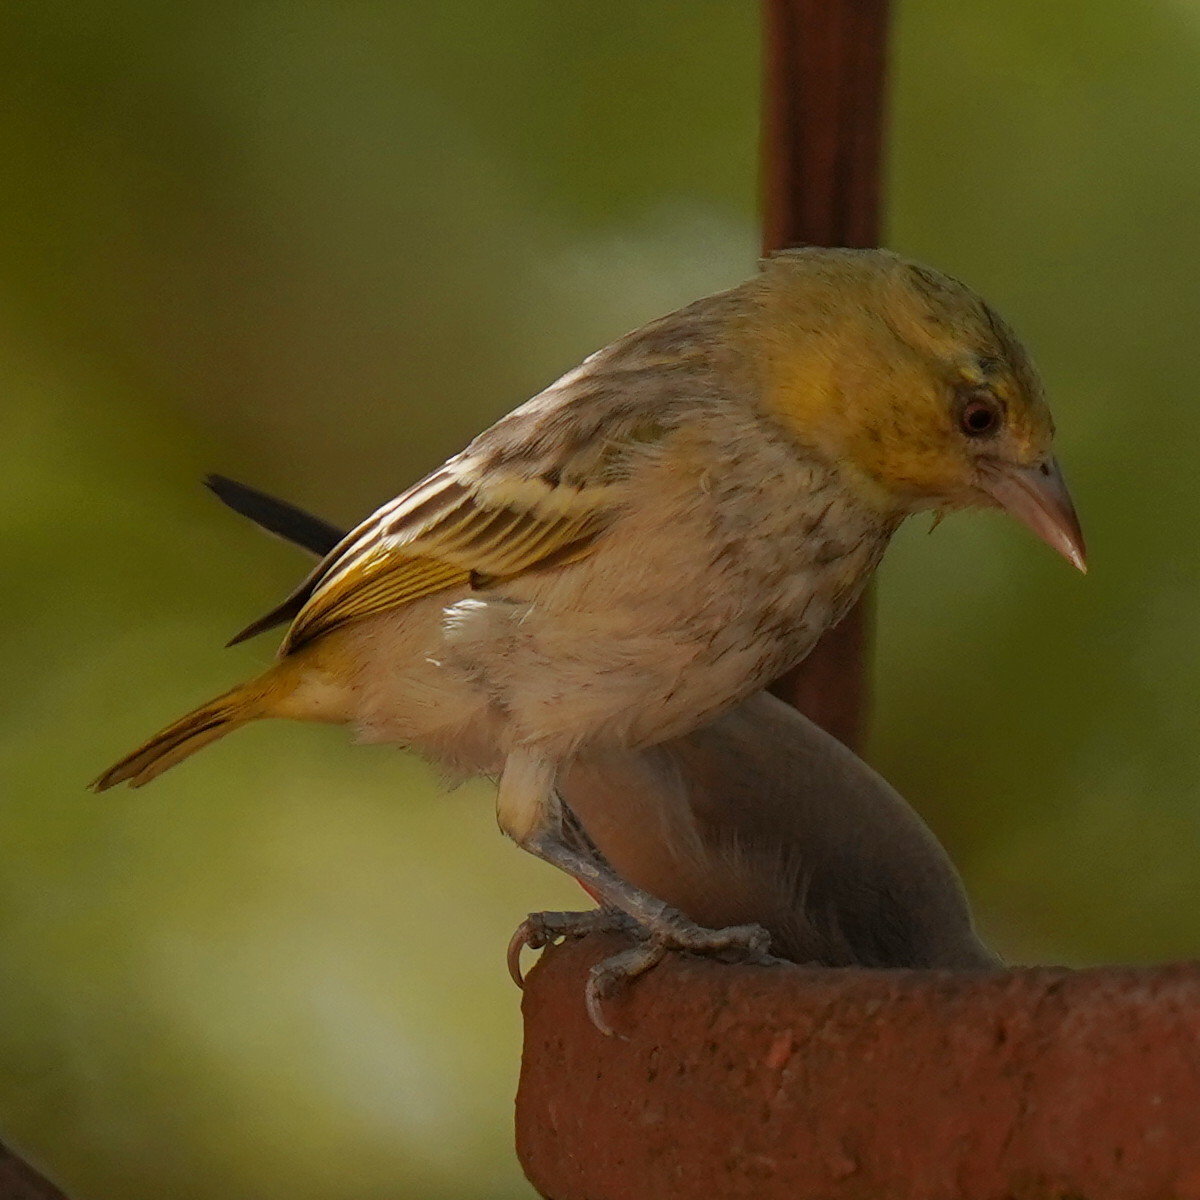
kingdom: Animalia
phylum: Chordata
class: Aves
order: Passeriformes
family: Ploceidae
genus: Ploceus
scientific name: Ploceus cucullatus
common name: Village weaver
